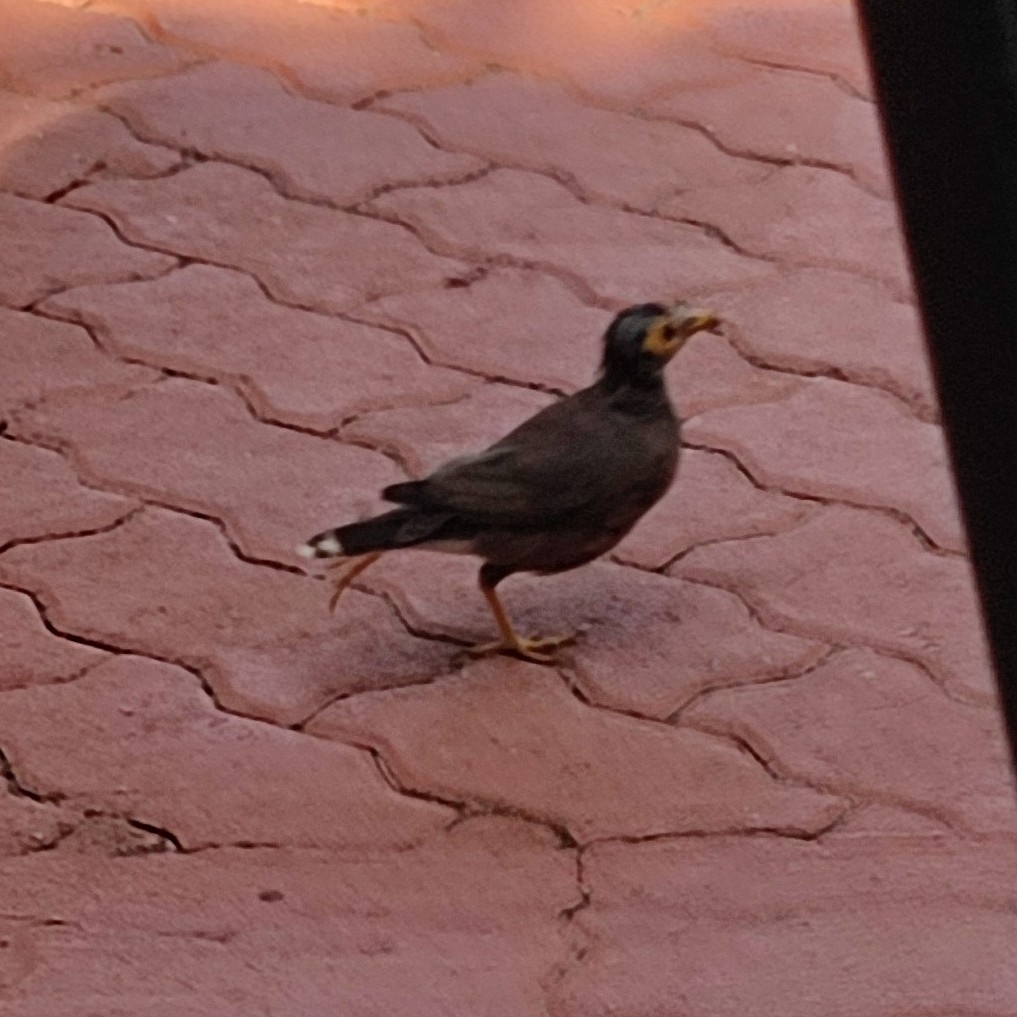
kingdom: Animalia
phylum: Chordata
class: Aves
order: Passeriformes
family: Sturnidae
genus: Acridotheres
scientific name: Acridotheres tristis
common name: Common myna
